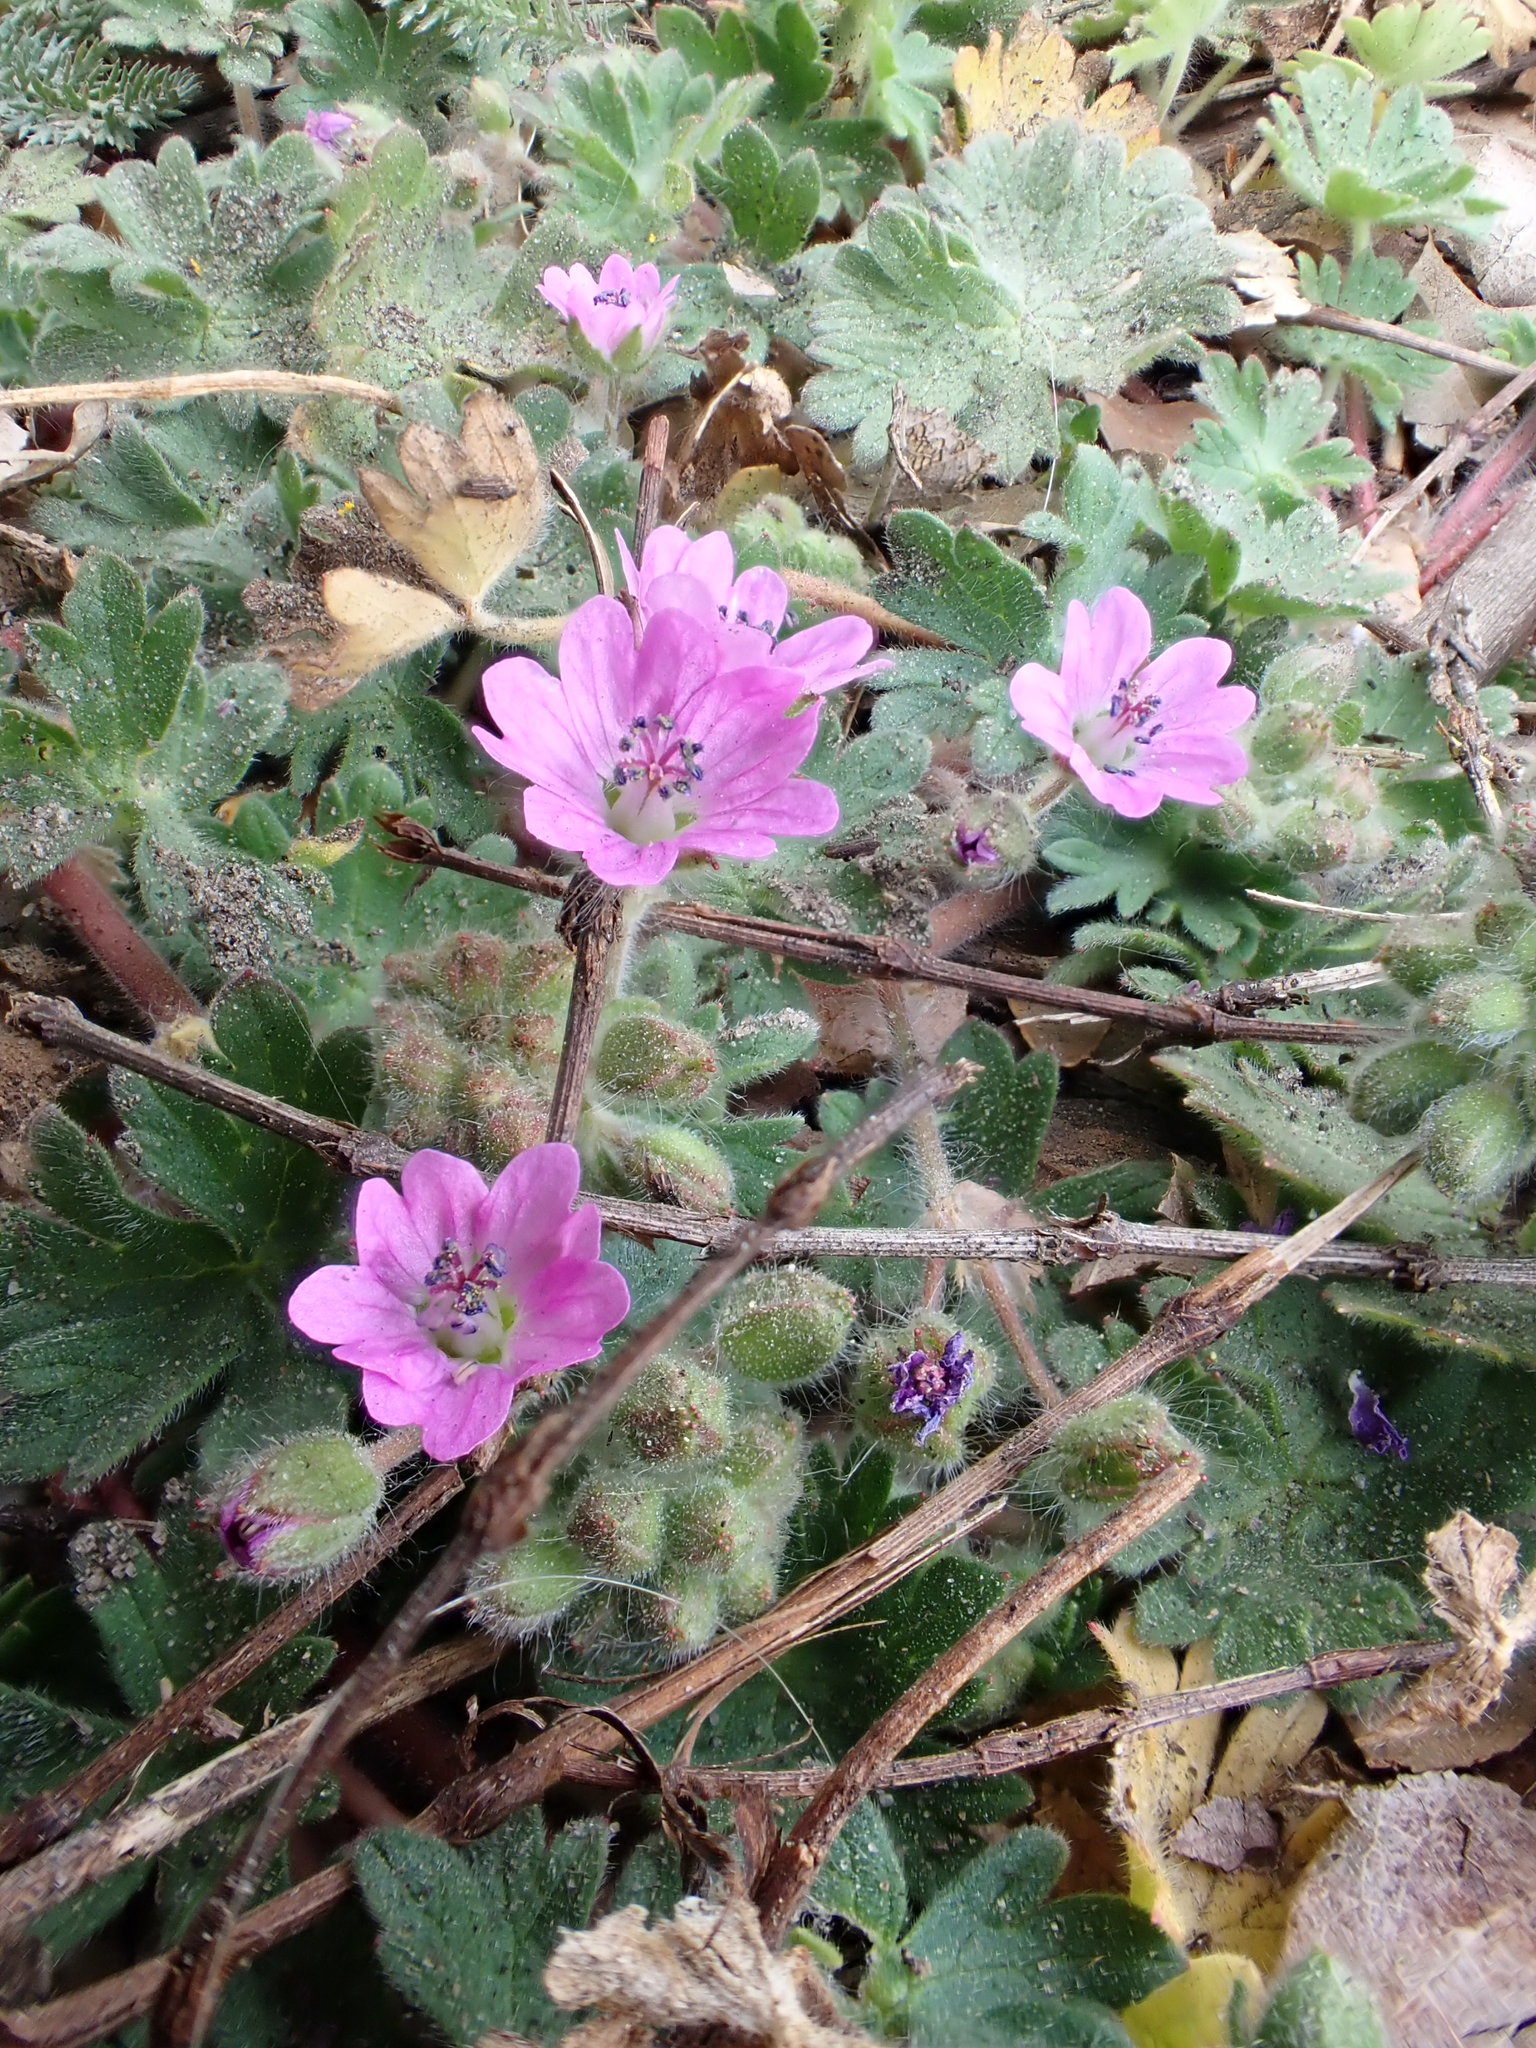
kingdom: Plantae
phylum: Tracheophyta
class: Magnoliopsida
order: Geraniales
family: Geraniaceae
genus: Geranium
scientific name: Geranium molle
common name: Dove's-foot crane's-bill
